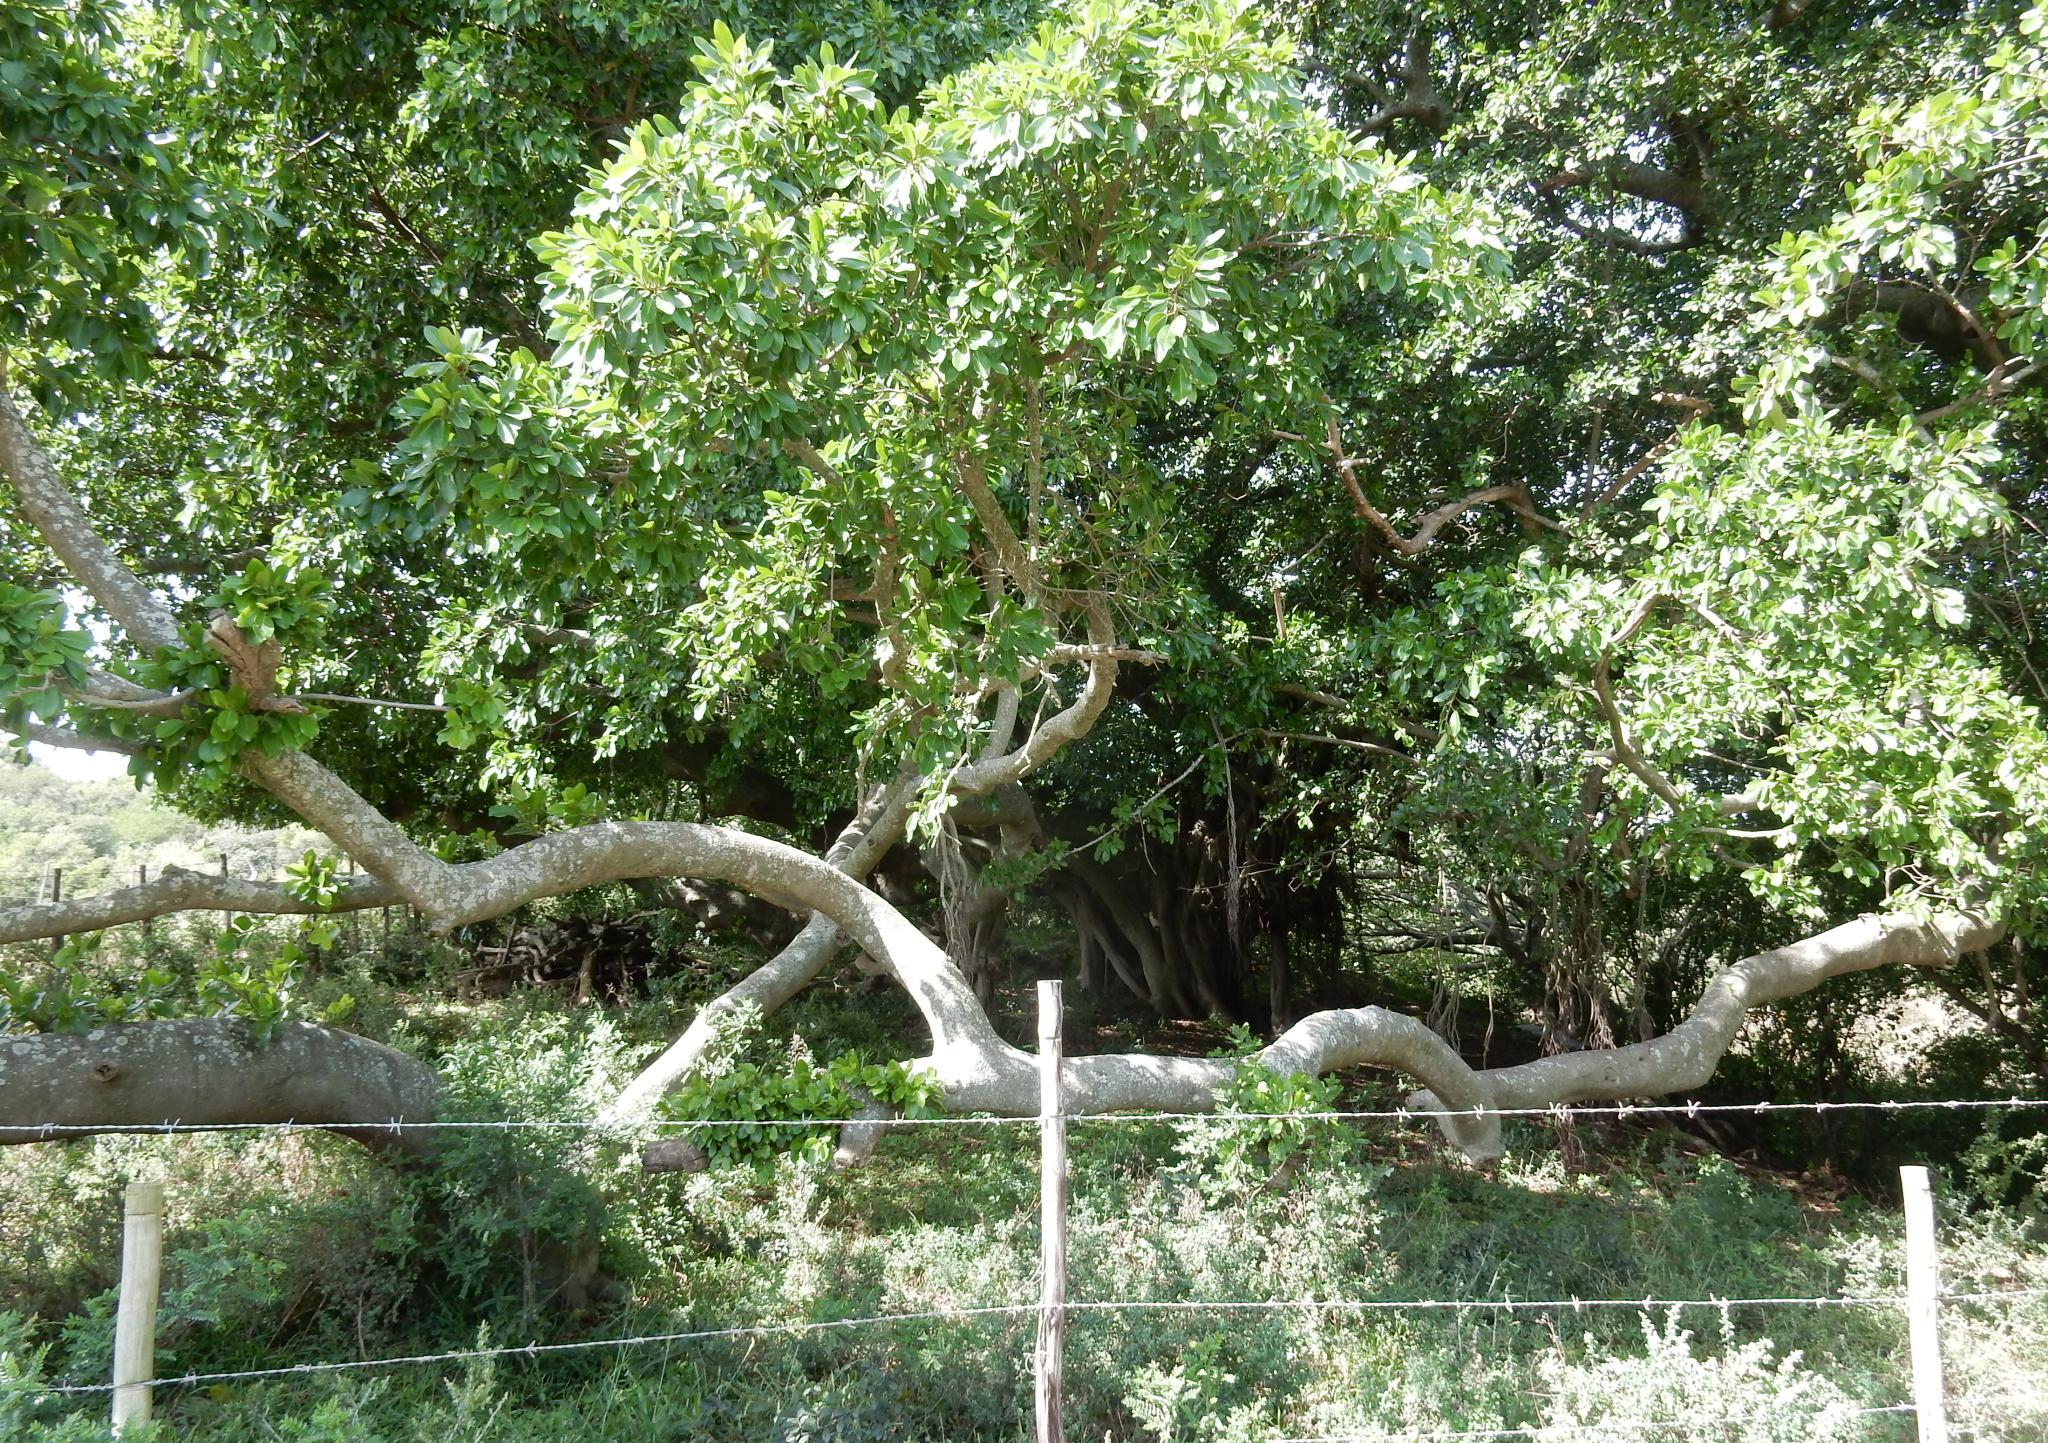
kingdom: Plantae
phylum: Tracheophyta
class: Magnoliopsida
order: Rosales
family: Moraceae
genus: Ficus
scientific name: Ficus thonningii
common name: Fig
